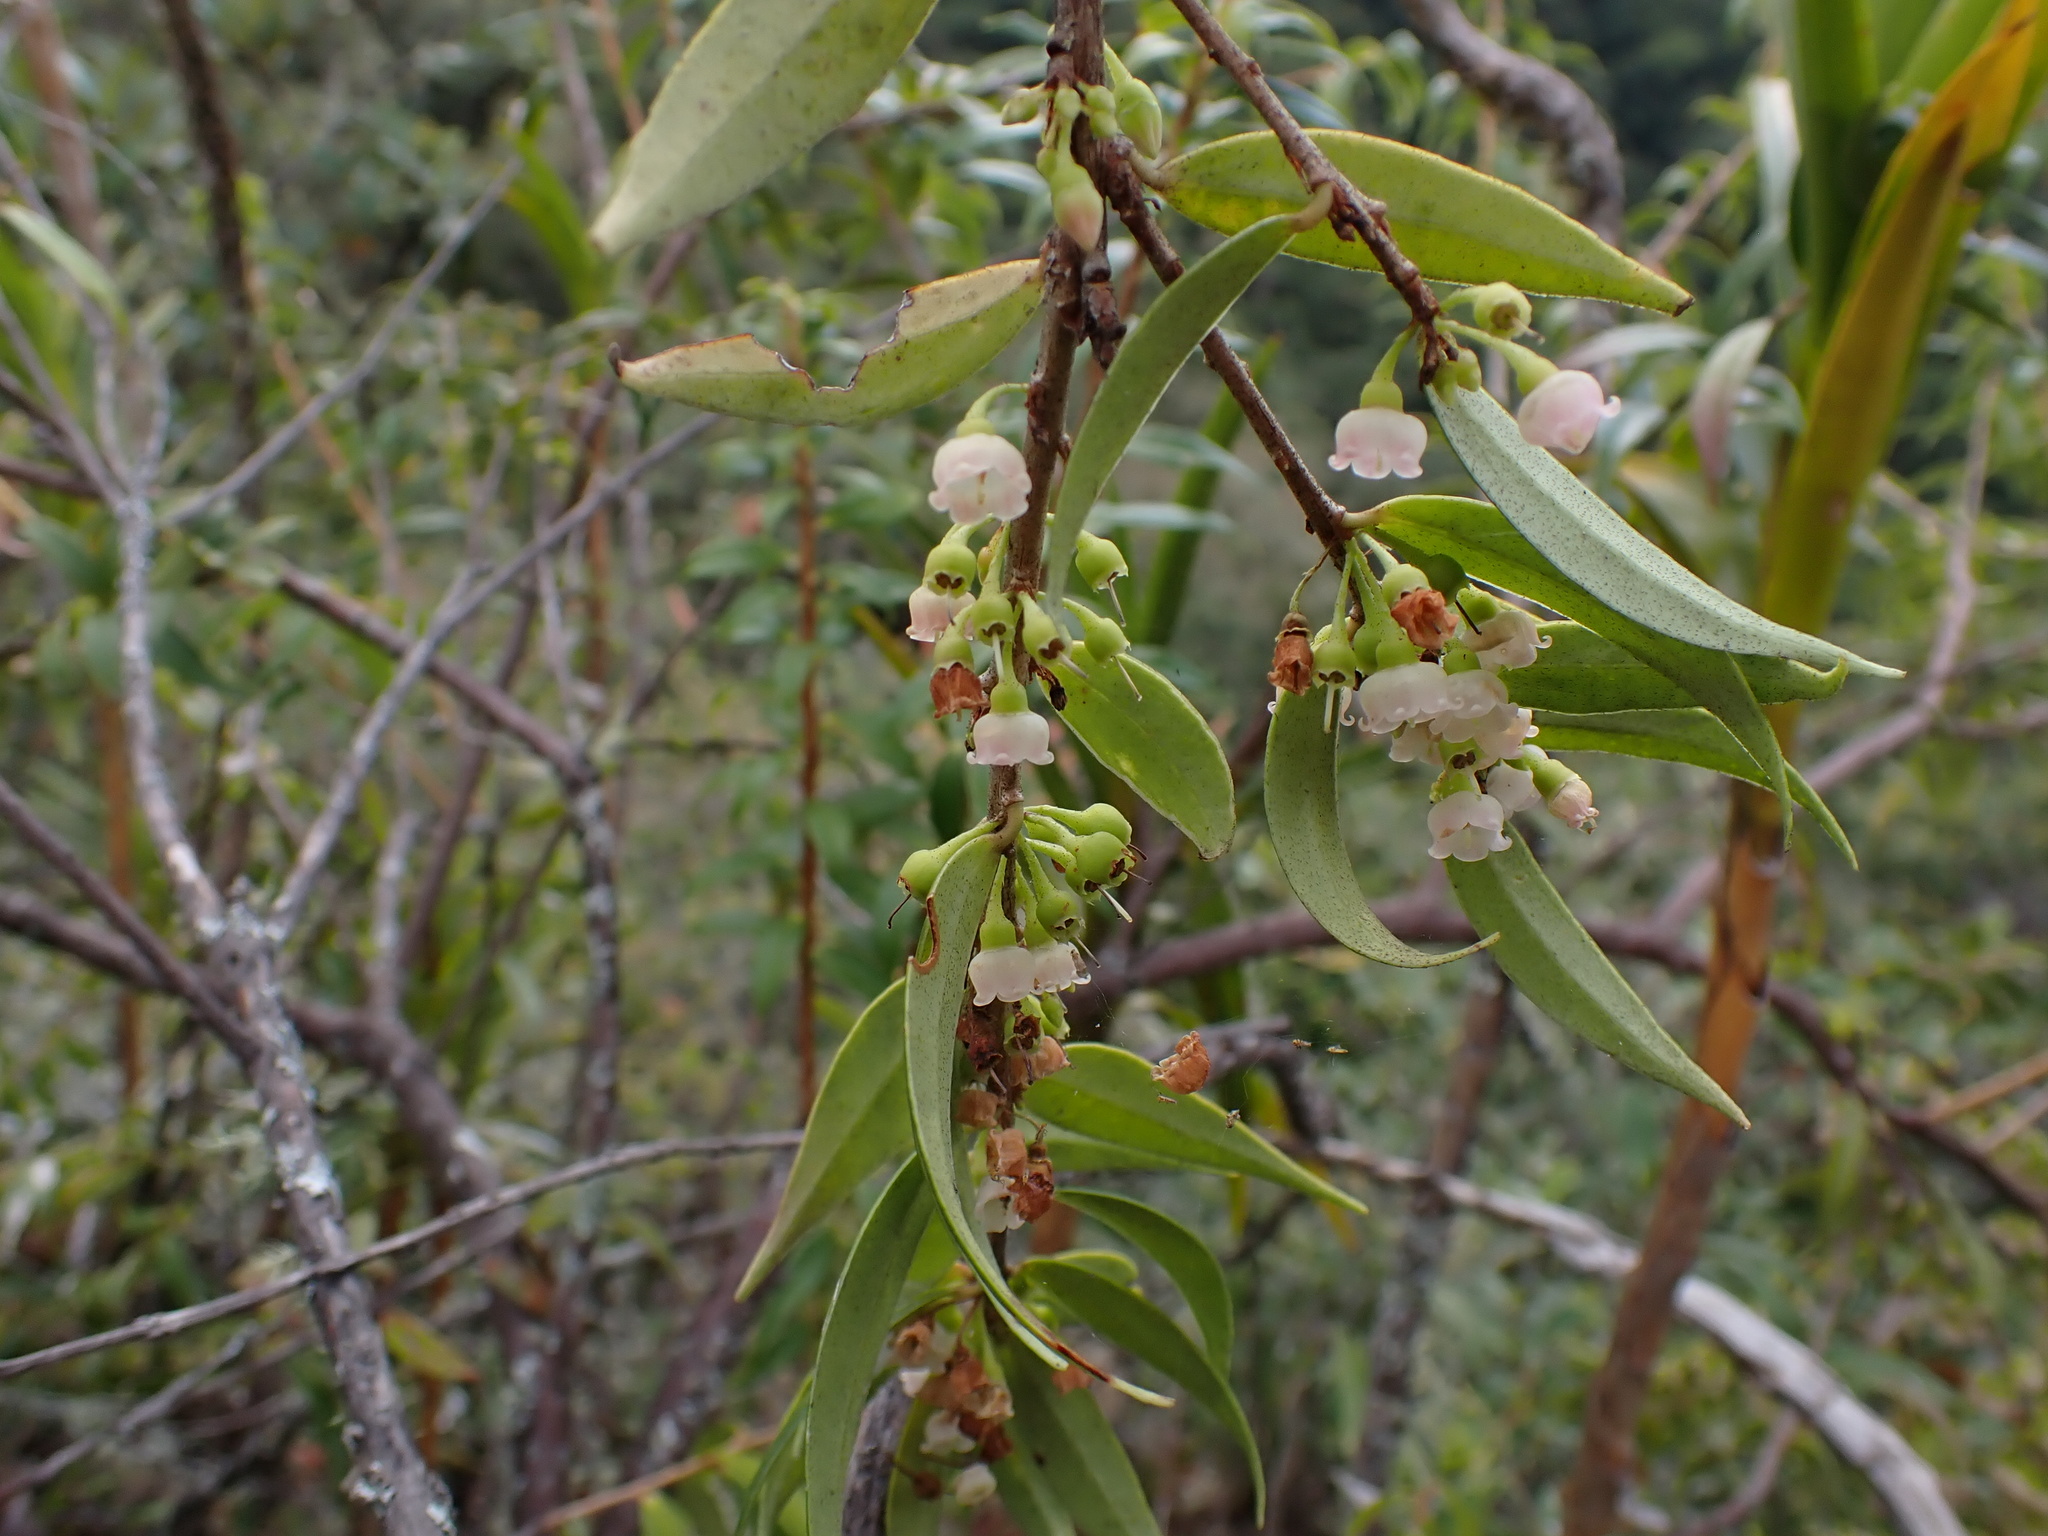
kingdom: Plantae
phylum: Tracheophyta
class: Magnoliopsida
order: Ericales
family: Ericaceae
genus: Diogenesia
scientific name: Diogenesia boliviana
